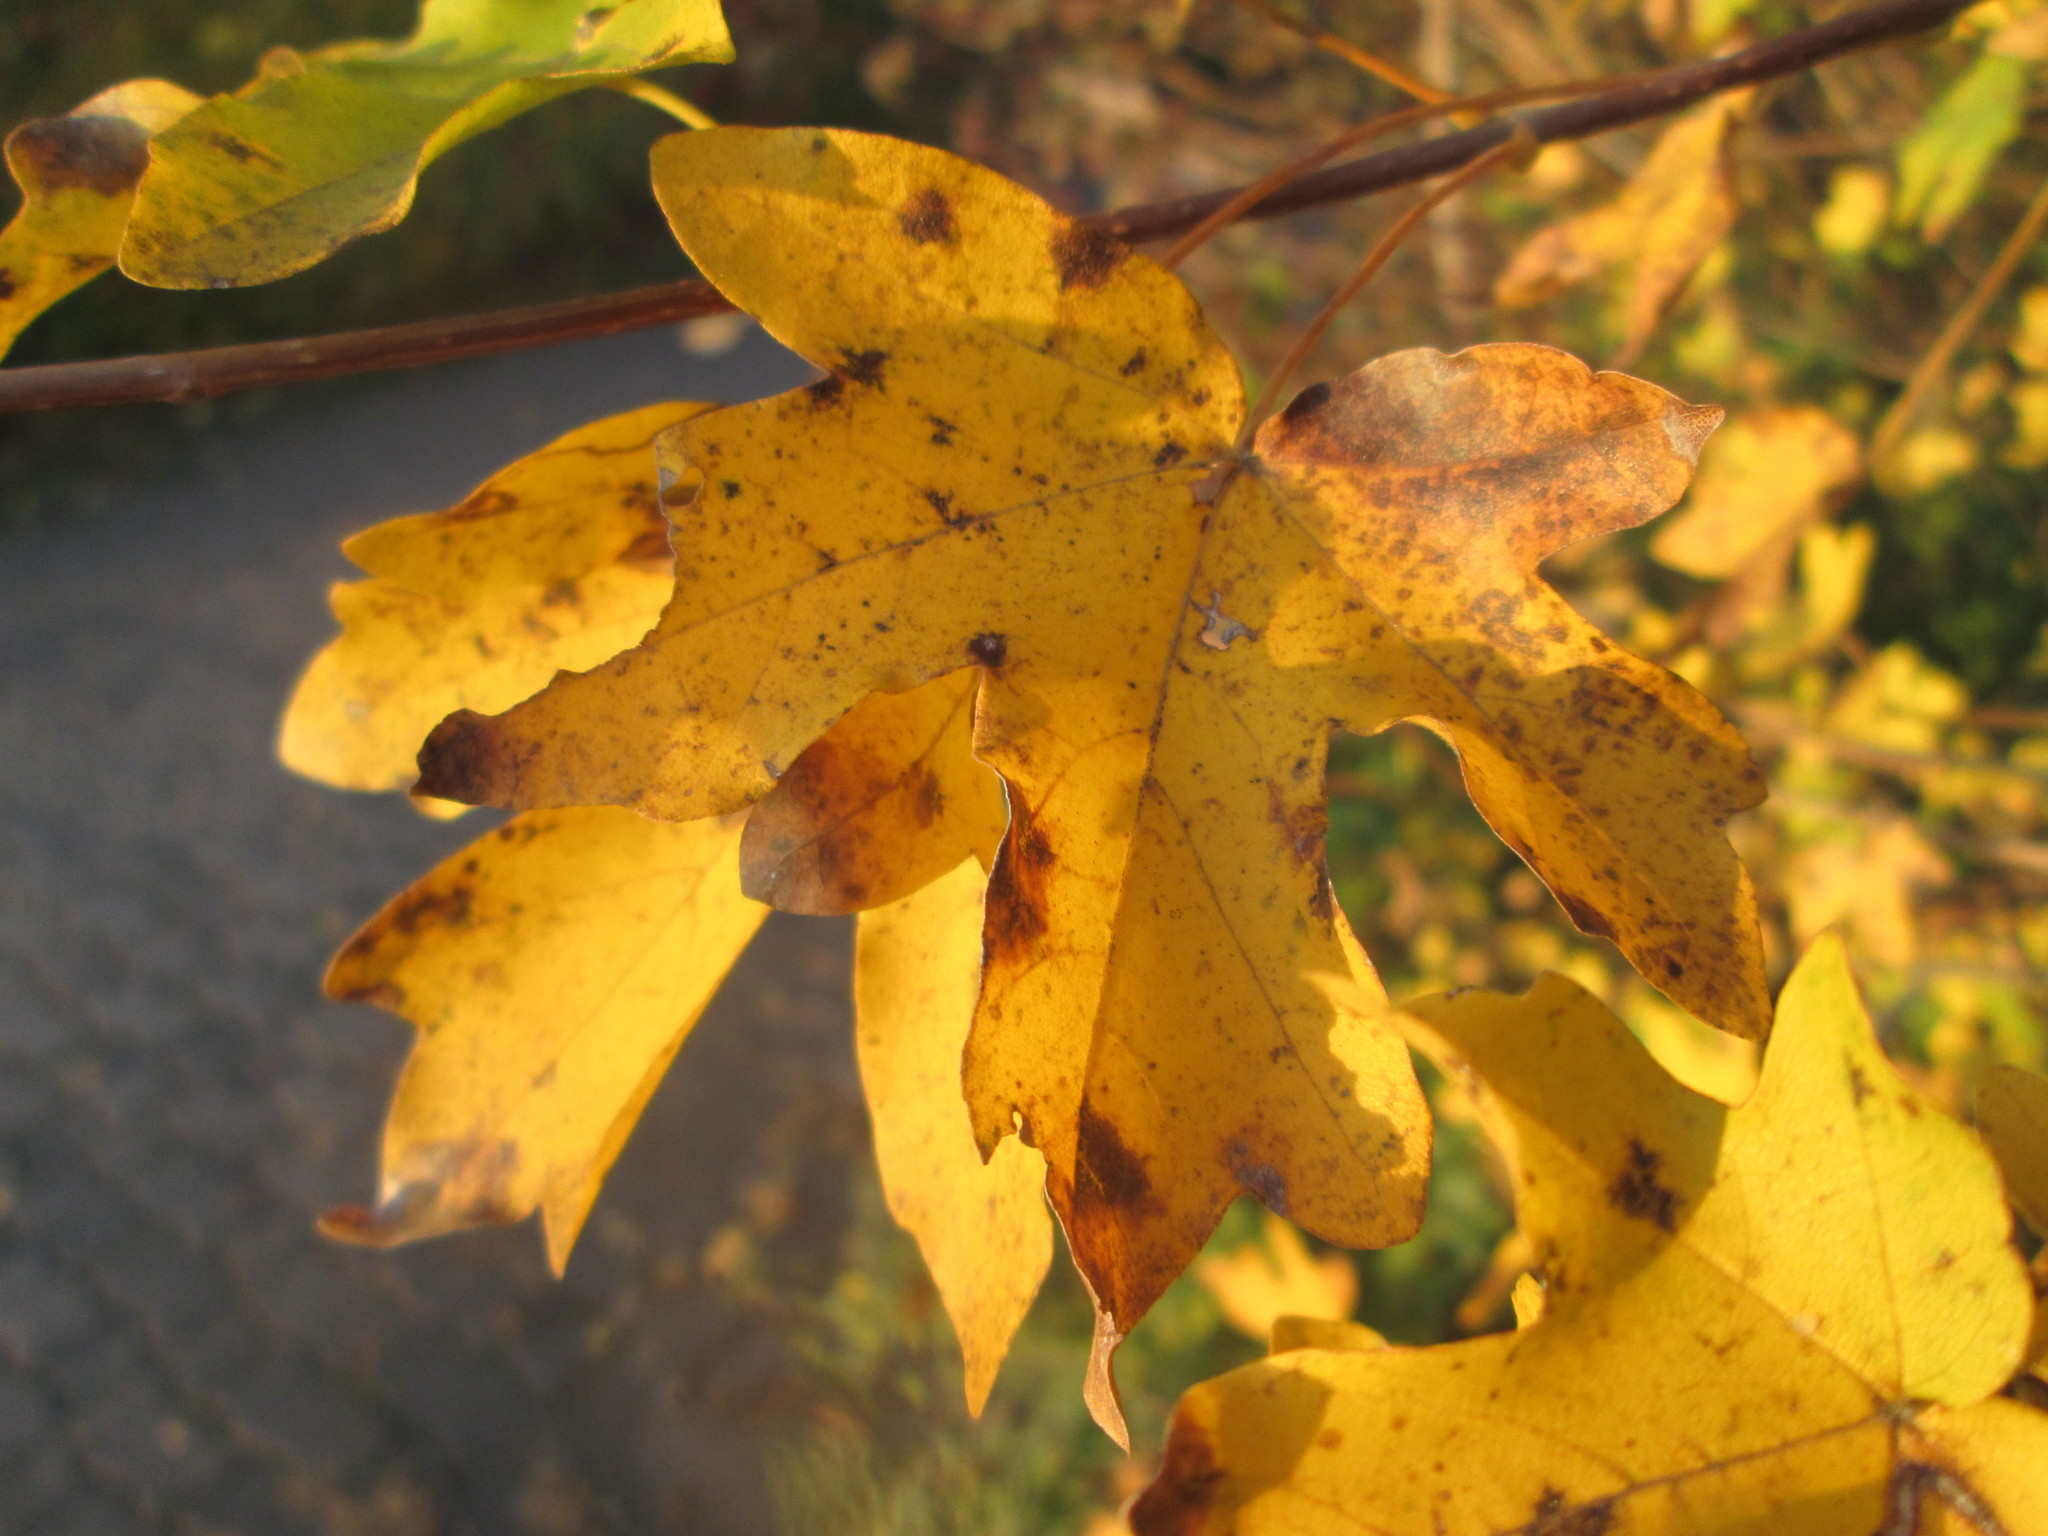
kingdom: Plantae
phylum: Tracheophyta
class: Magnoliopsida
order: Sapindales
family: Sapindaceae
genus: Acer
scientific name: Acer campestre
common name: Field maple
